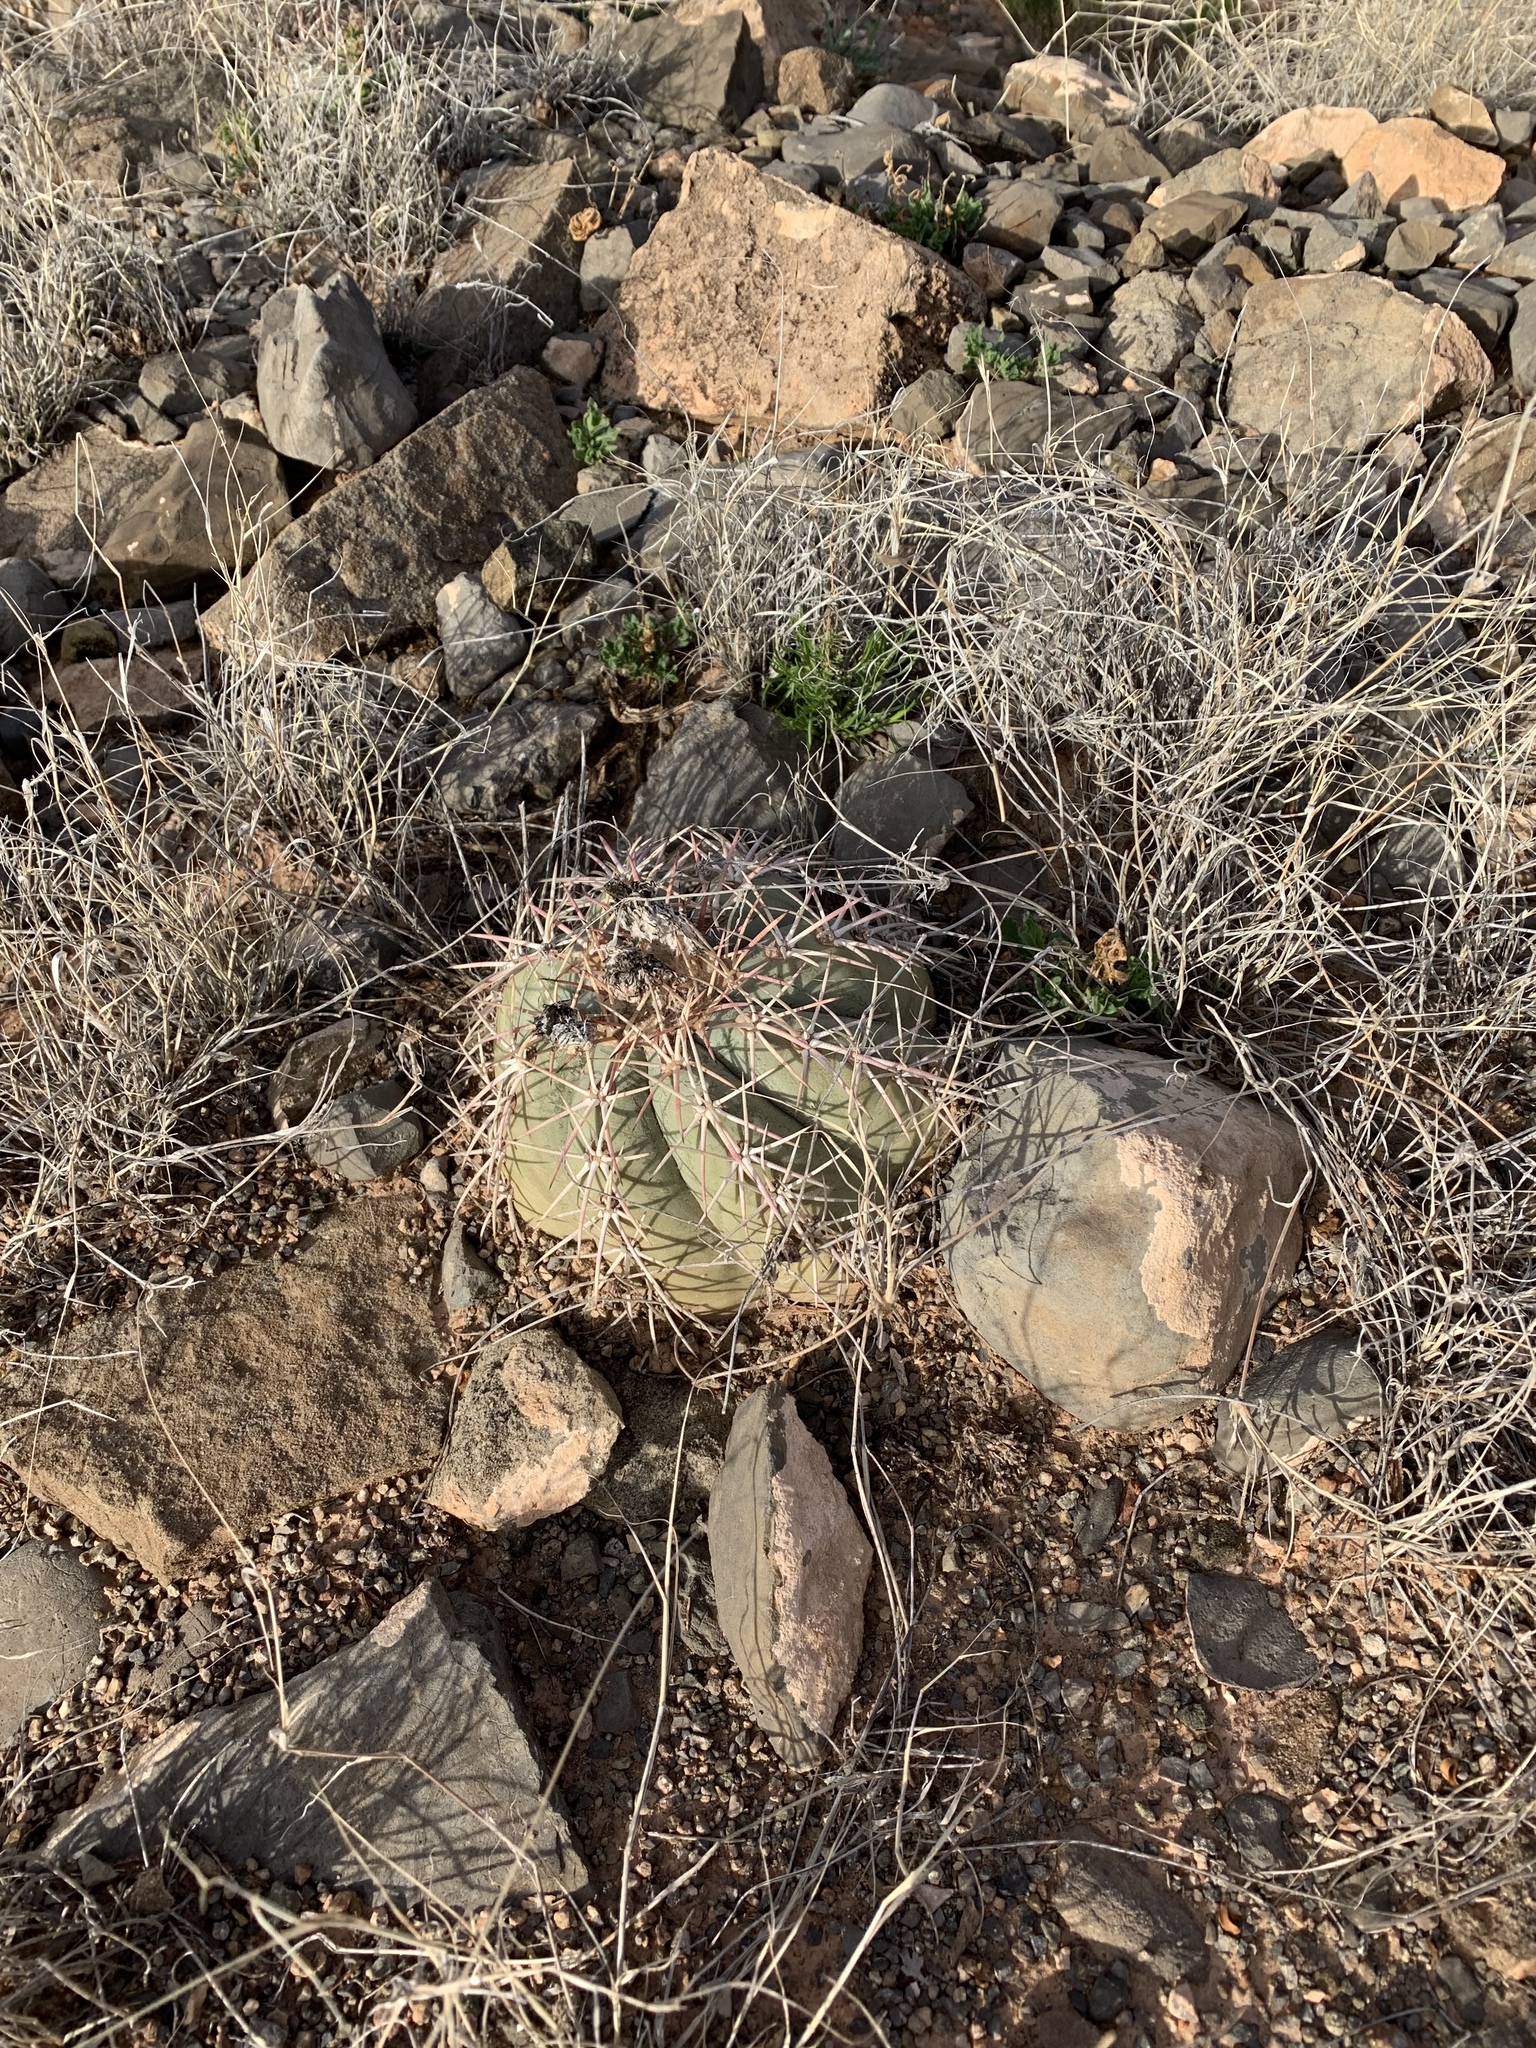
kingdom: Plantae
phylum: Tracheophyta
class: Magnoliopsida
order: Caryophyllales
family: Cactaceae
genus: Echinocactus
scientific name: Echinocactus horizonthalonius
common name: Devilshead
